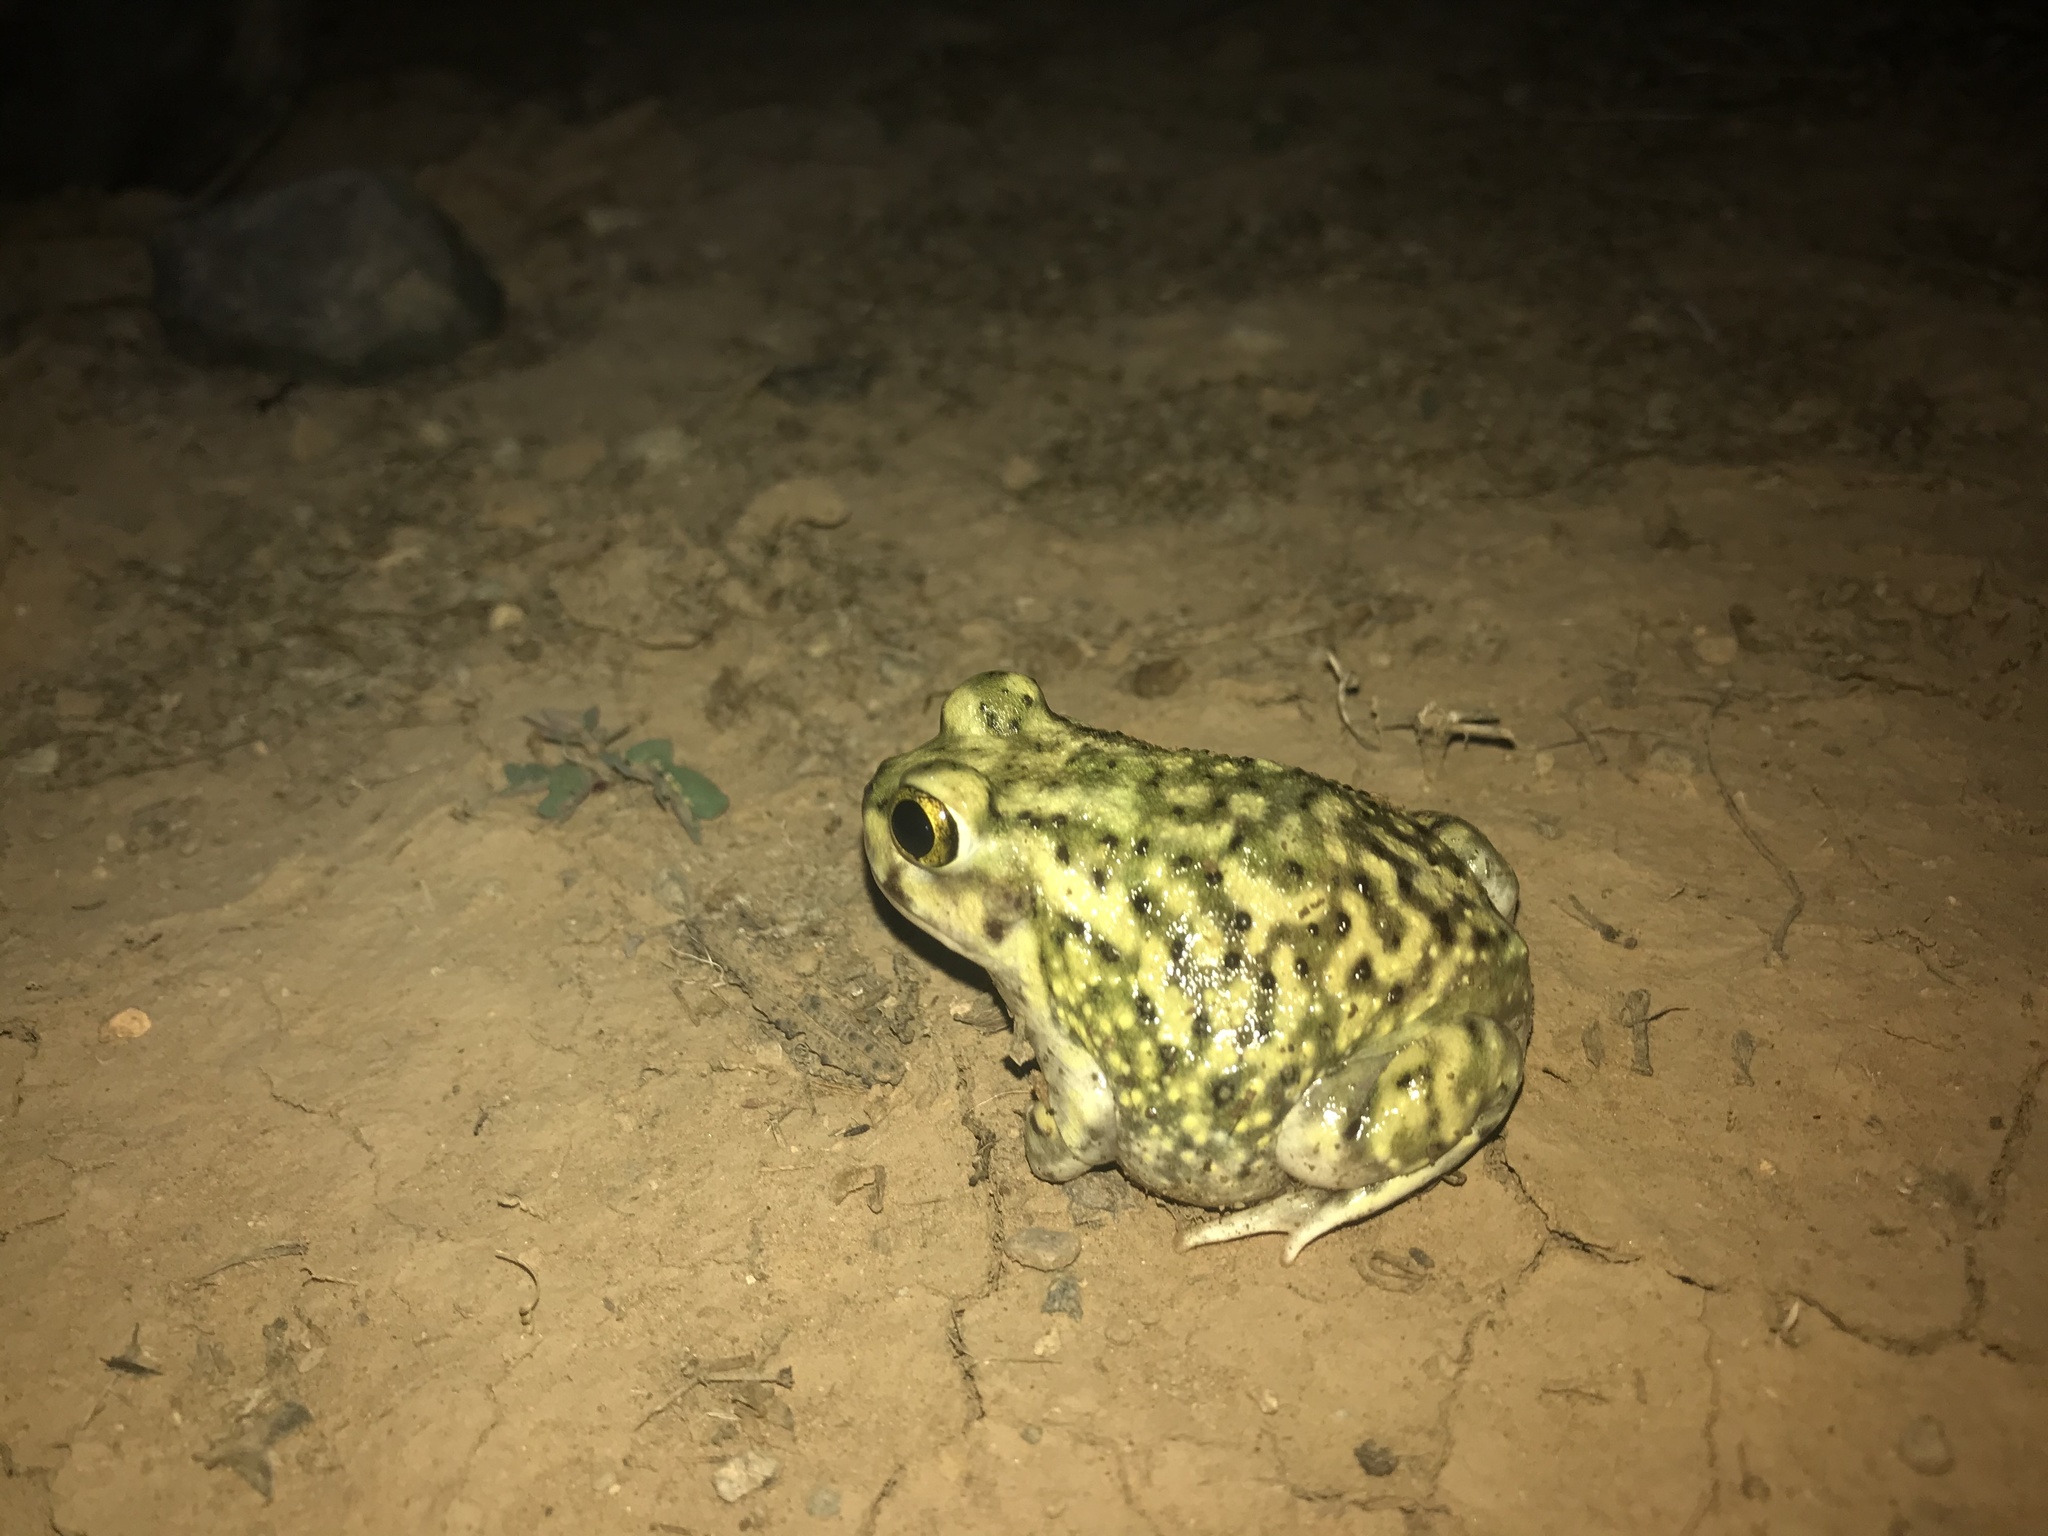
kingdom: Animalia
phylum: Chordata
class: Amphibia
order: Anura
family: Scaphiopodidae
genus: Scaphiopus
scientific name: Scaphiopus couchii
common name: Couch's spadefoot toad
